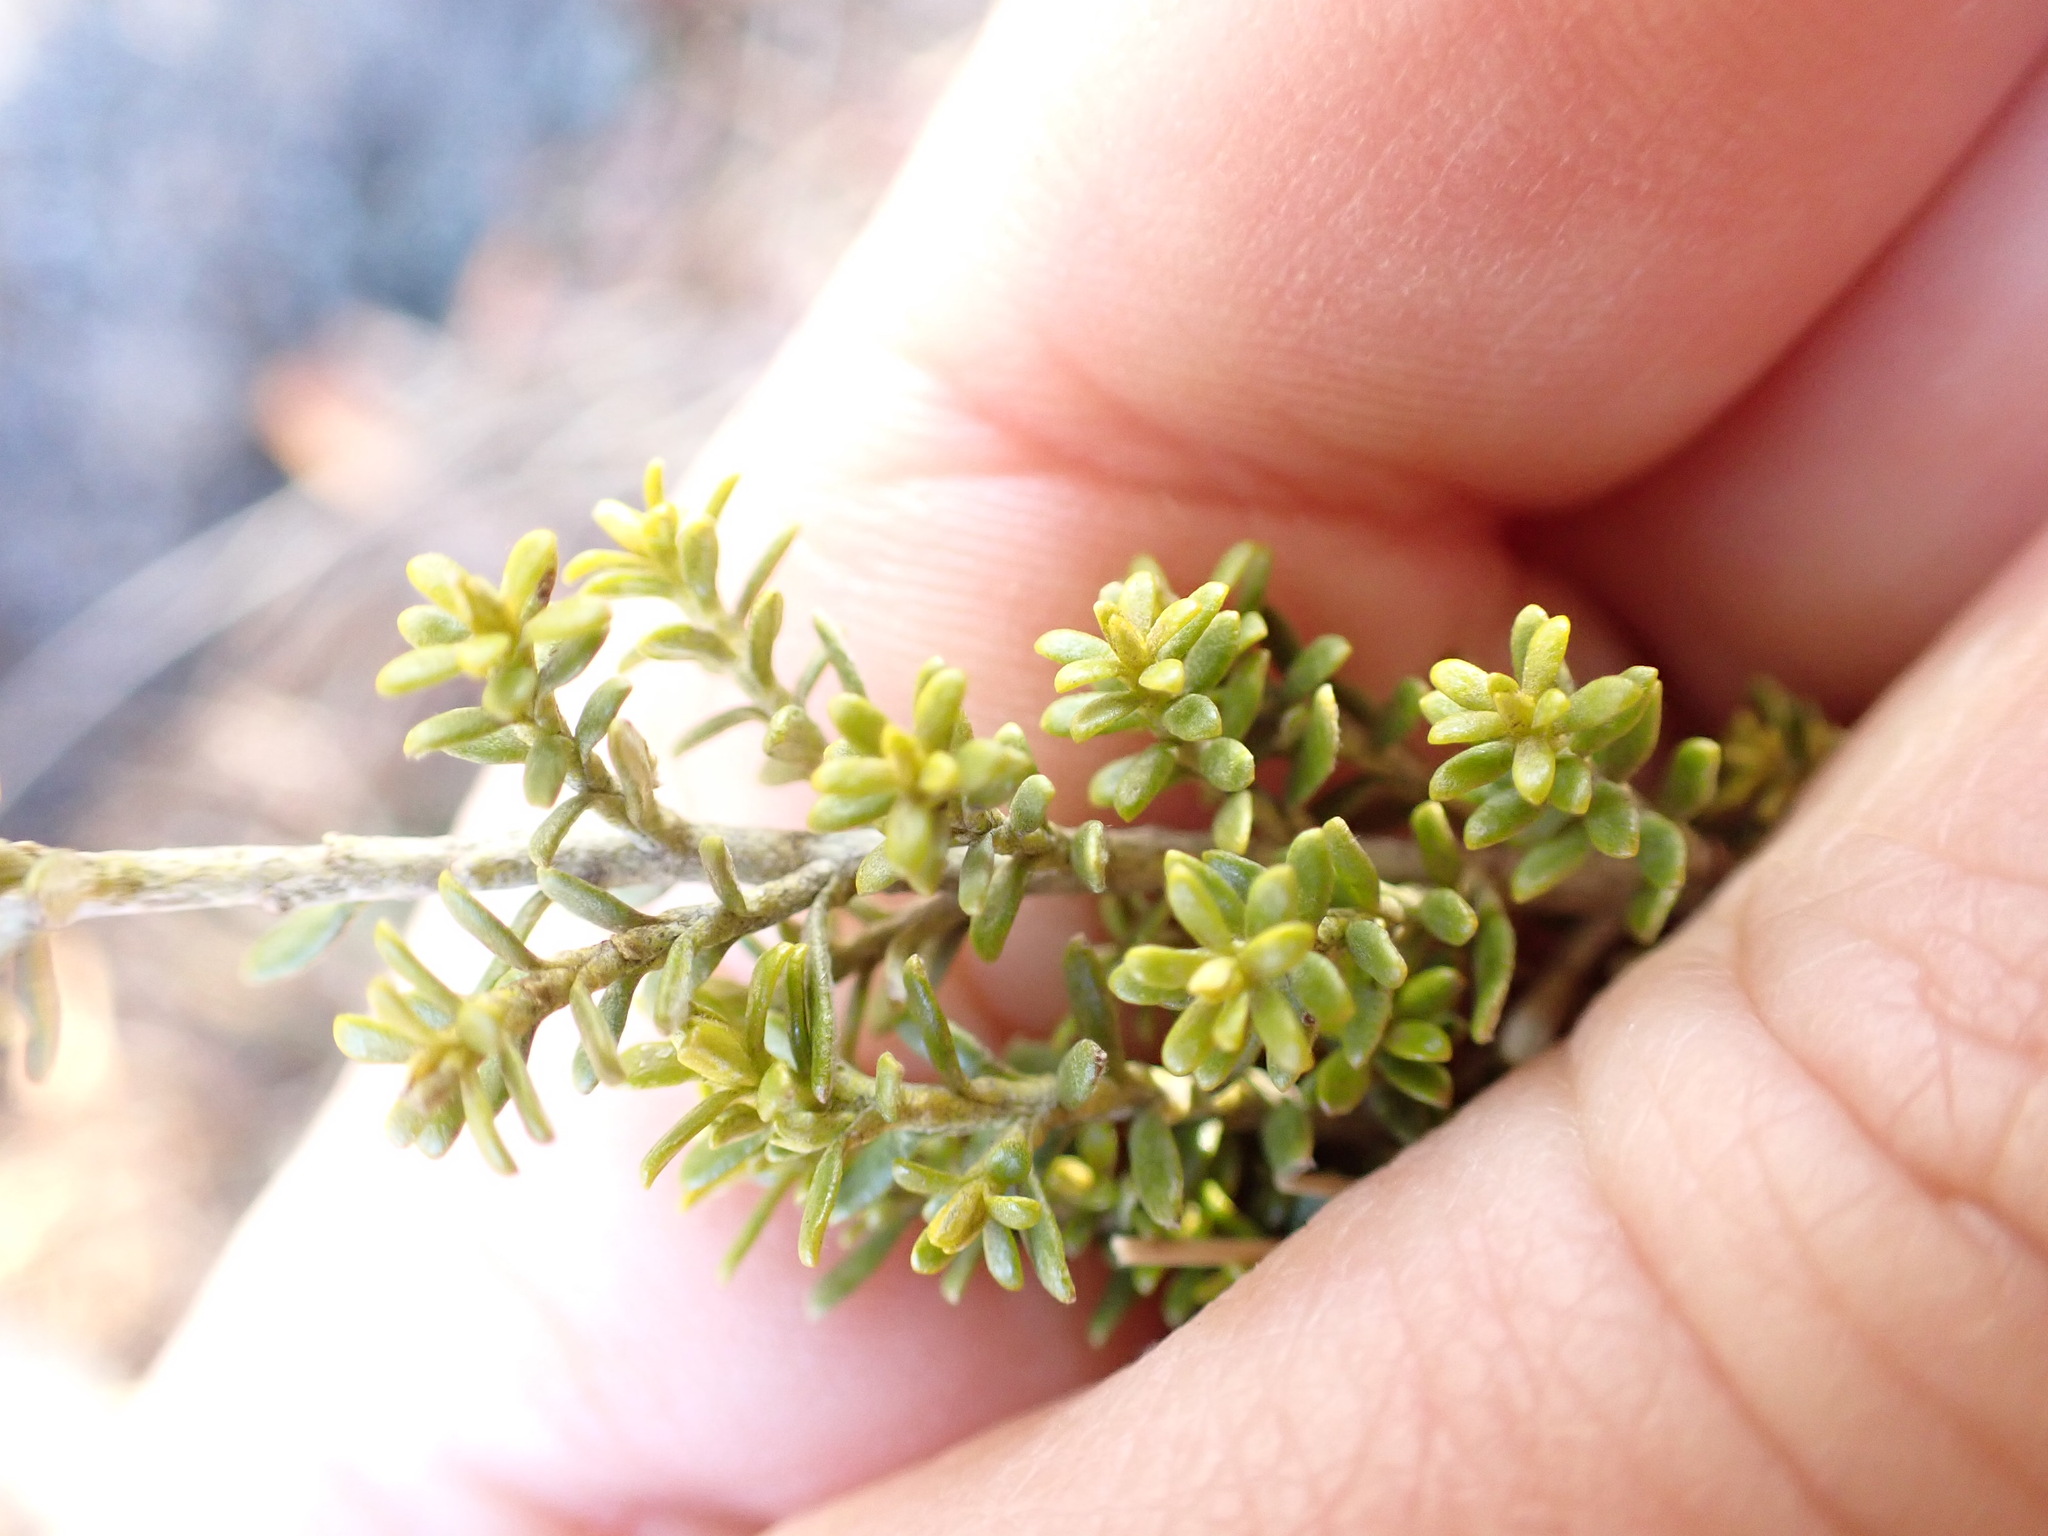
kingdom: Plantae
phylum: Tracheophyta
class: Magnoliopsida
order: Asterales
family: Asteraceae
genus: Ozothamnus
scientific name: Ozothamnus leptophyllus
